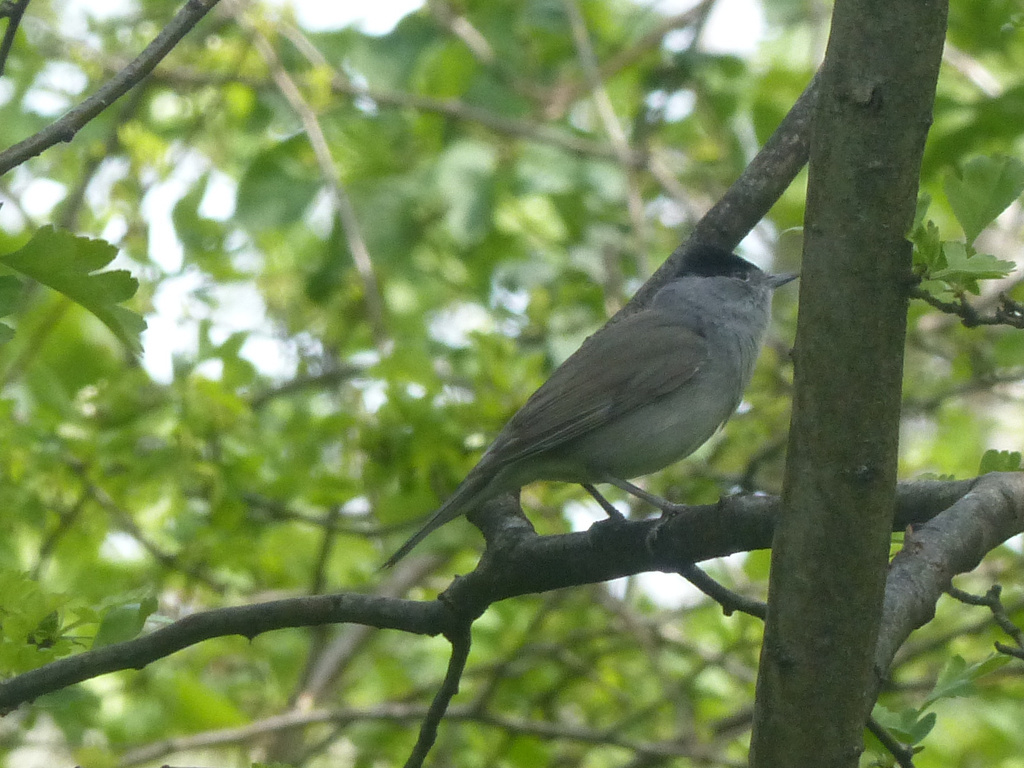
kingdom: Animalia
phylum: Chordata
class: Aves
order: Passeriformes
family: Sylviidae
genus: Sylvia
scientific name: Sylvia atricapilla
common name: Eurasian blackcap
